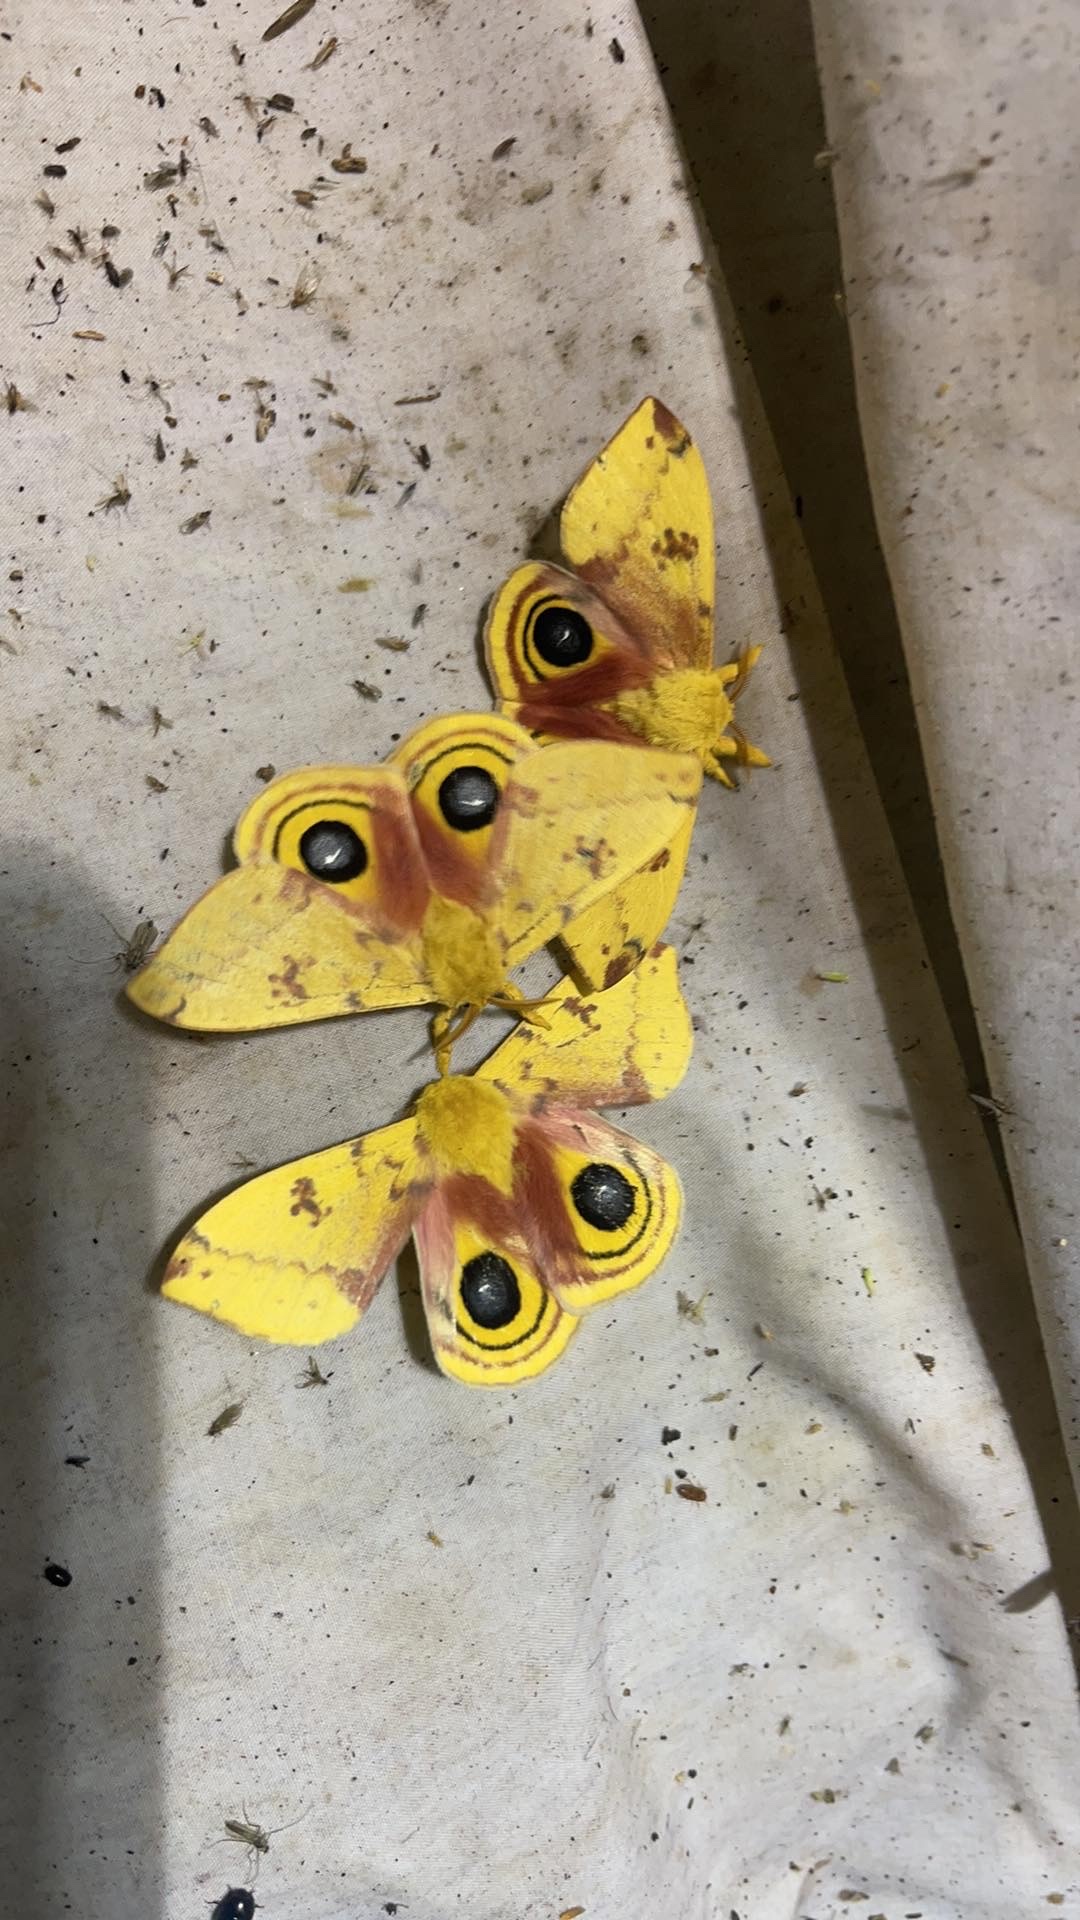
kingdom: Animalia
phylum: Arthropoda
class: Insecta
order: Lepidoptera
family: Saturniidae
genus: Automeris
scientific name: Automeris io
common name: Io moth
